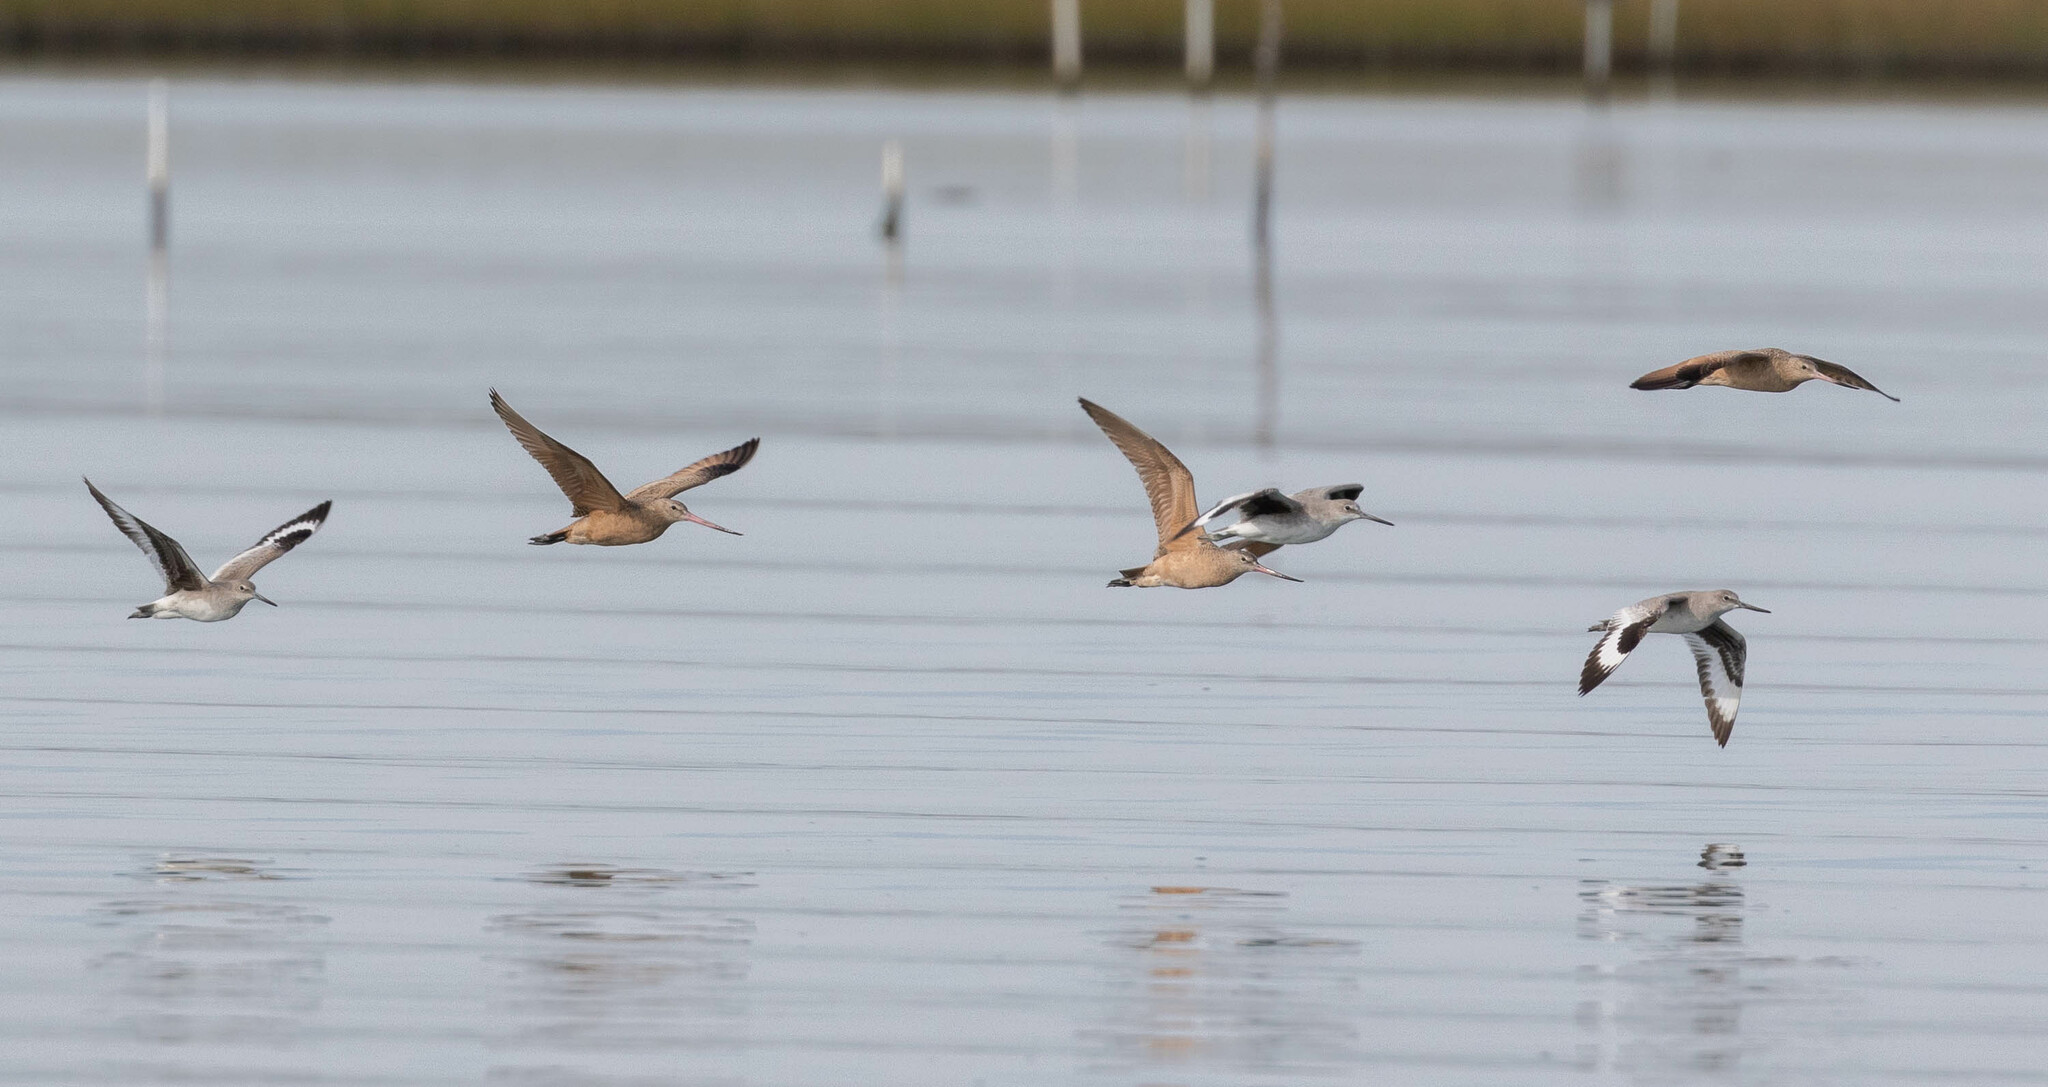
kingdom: Animalia
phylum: Chordata
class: Aves
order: Charadriiformes
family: Scolopacidae
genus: Limosa
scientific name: Limosa fedoa
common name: Marbled godwit
